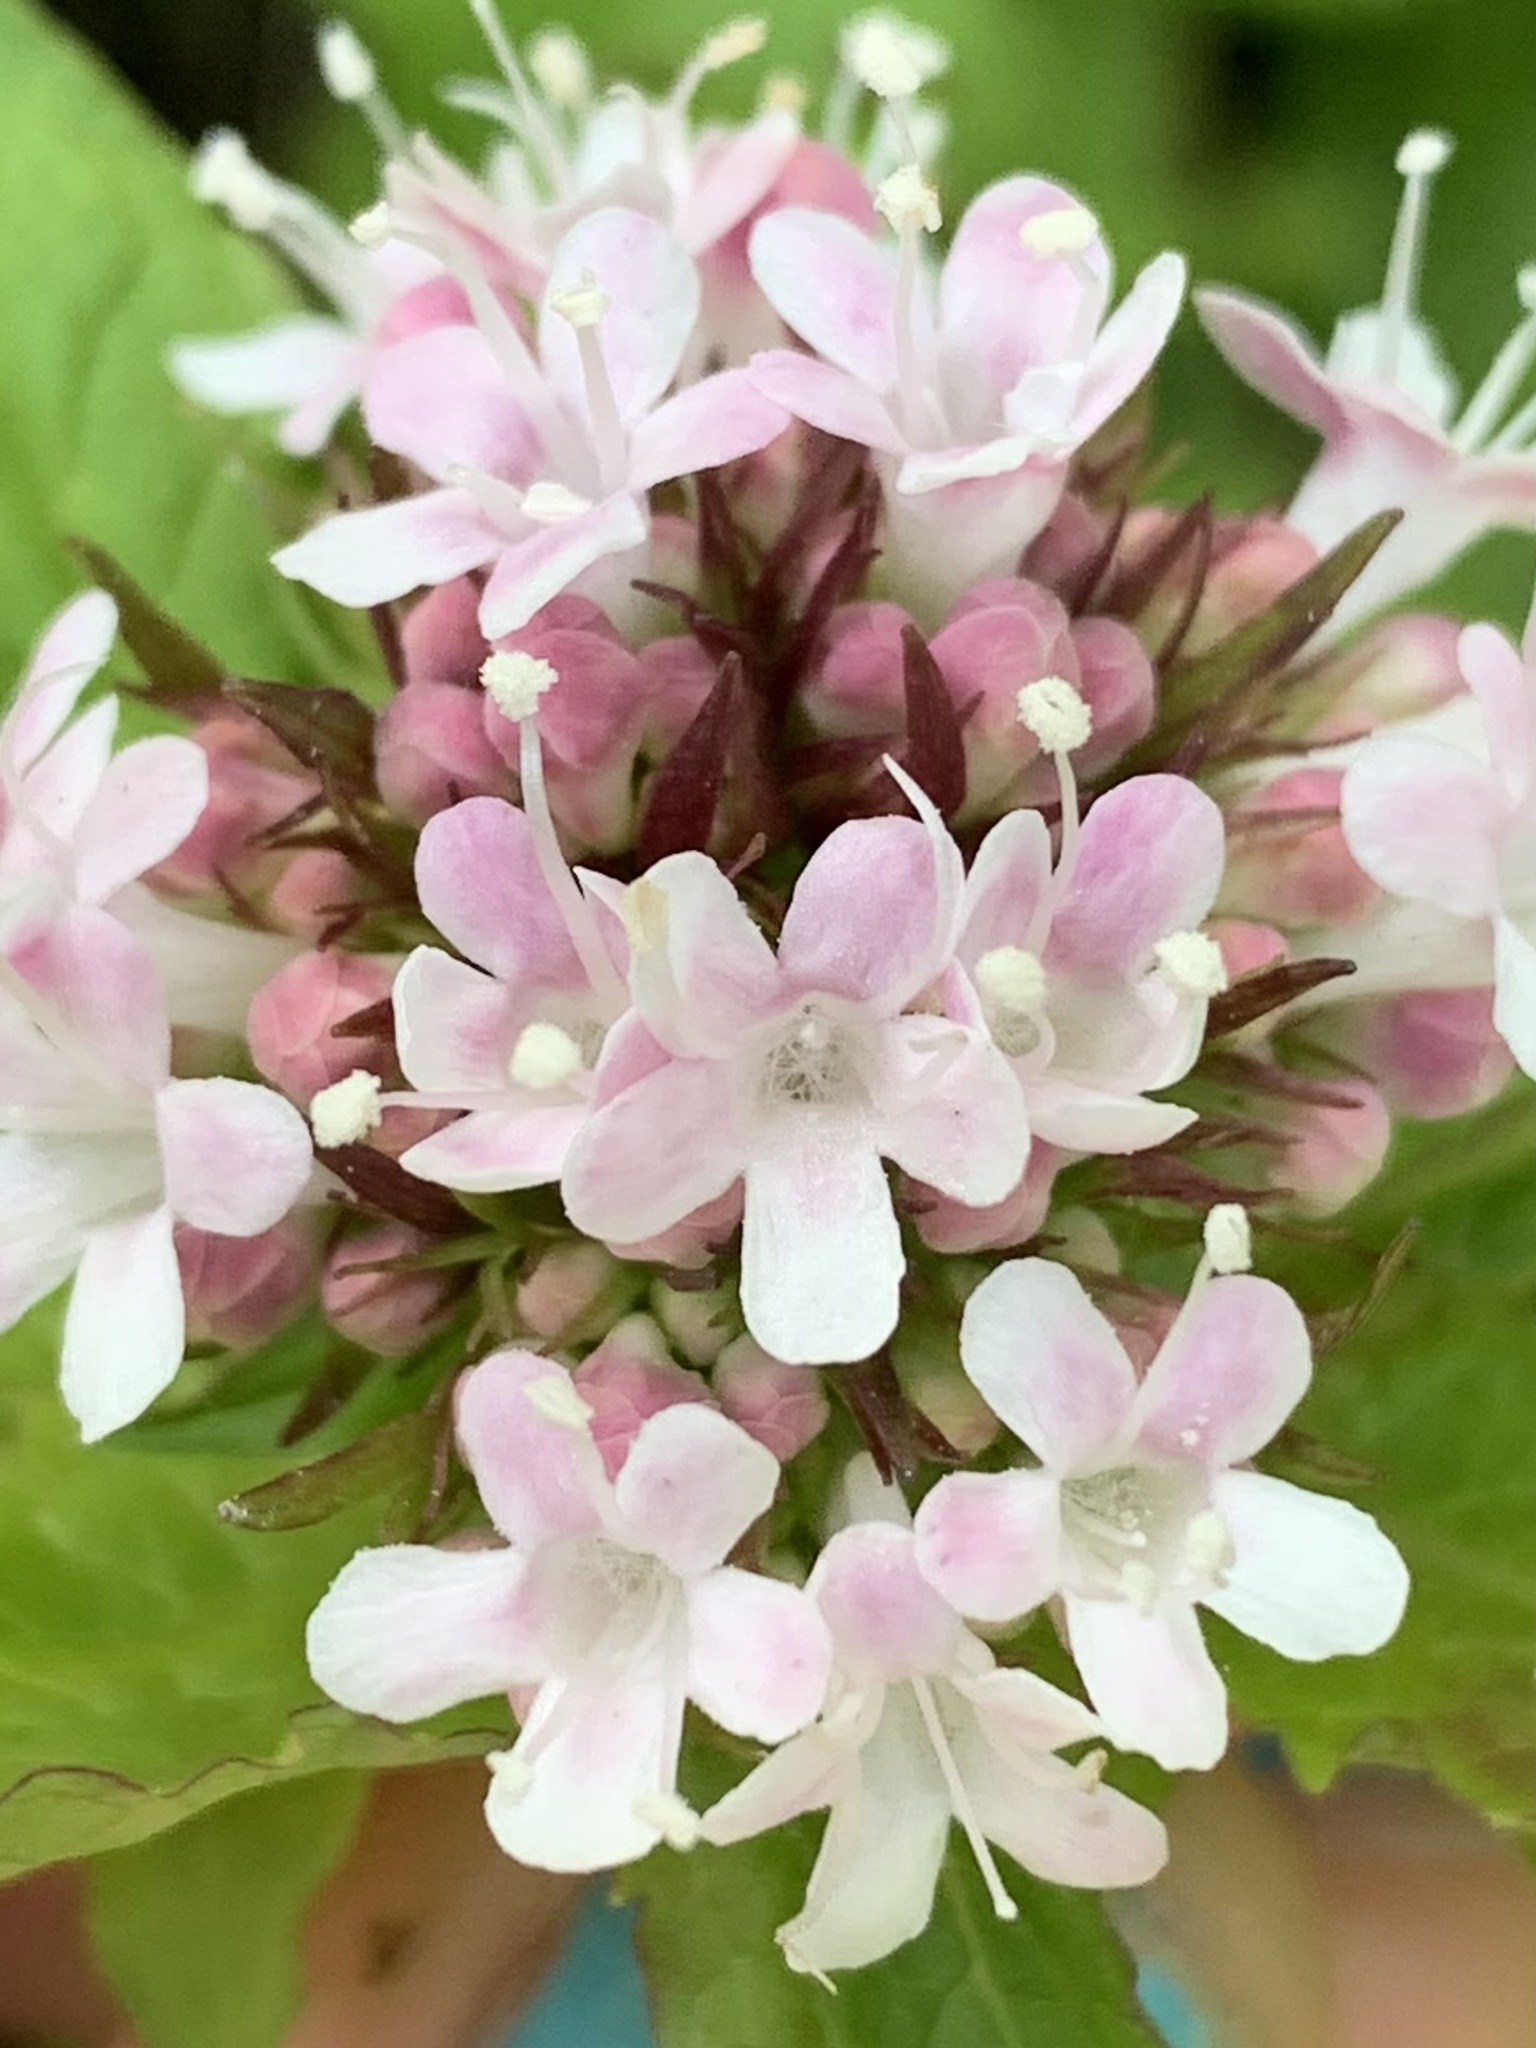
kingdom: Plantae
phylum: Tracheophyta
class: Magnoliopsida
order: Dipsacales
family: Caprifoliaceae
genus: Valeriana
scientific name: Valeriana sitchensis
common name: Pacific valerian
